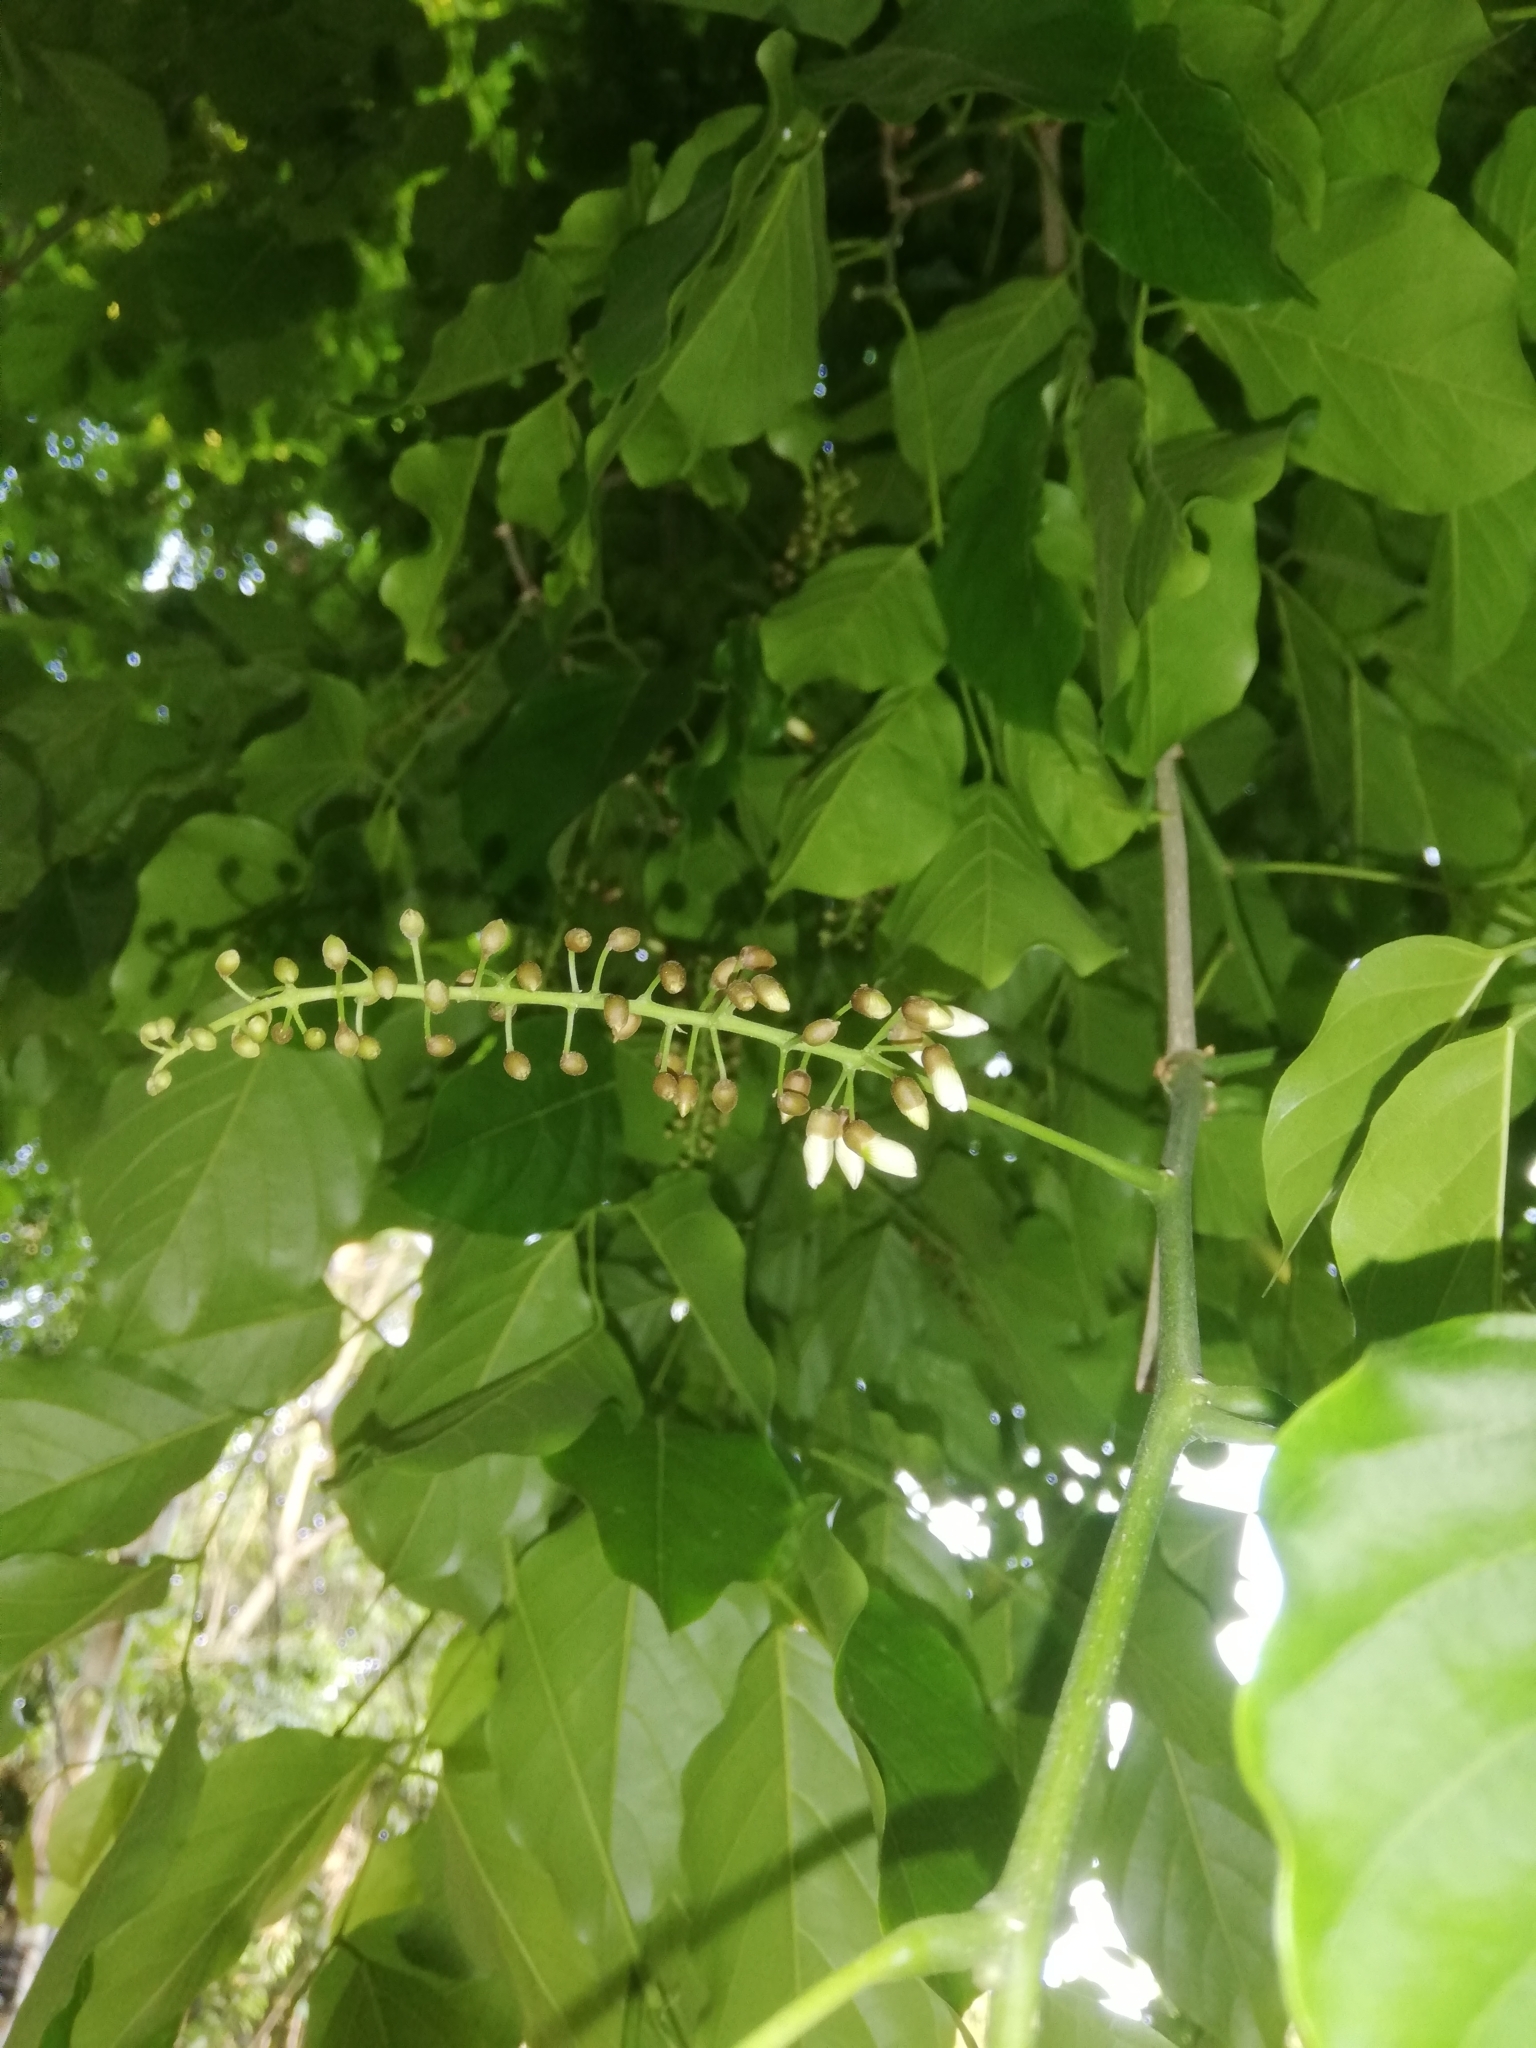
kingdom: Plantae
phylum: Tracheophyta
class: Magnoliopsida
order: Fabales
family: Fabaceae
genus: Pongamia
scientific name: Pongamia pinnata
